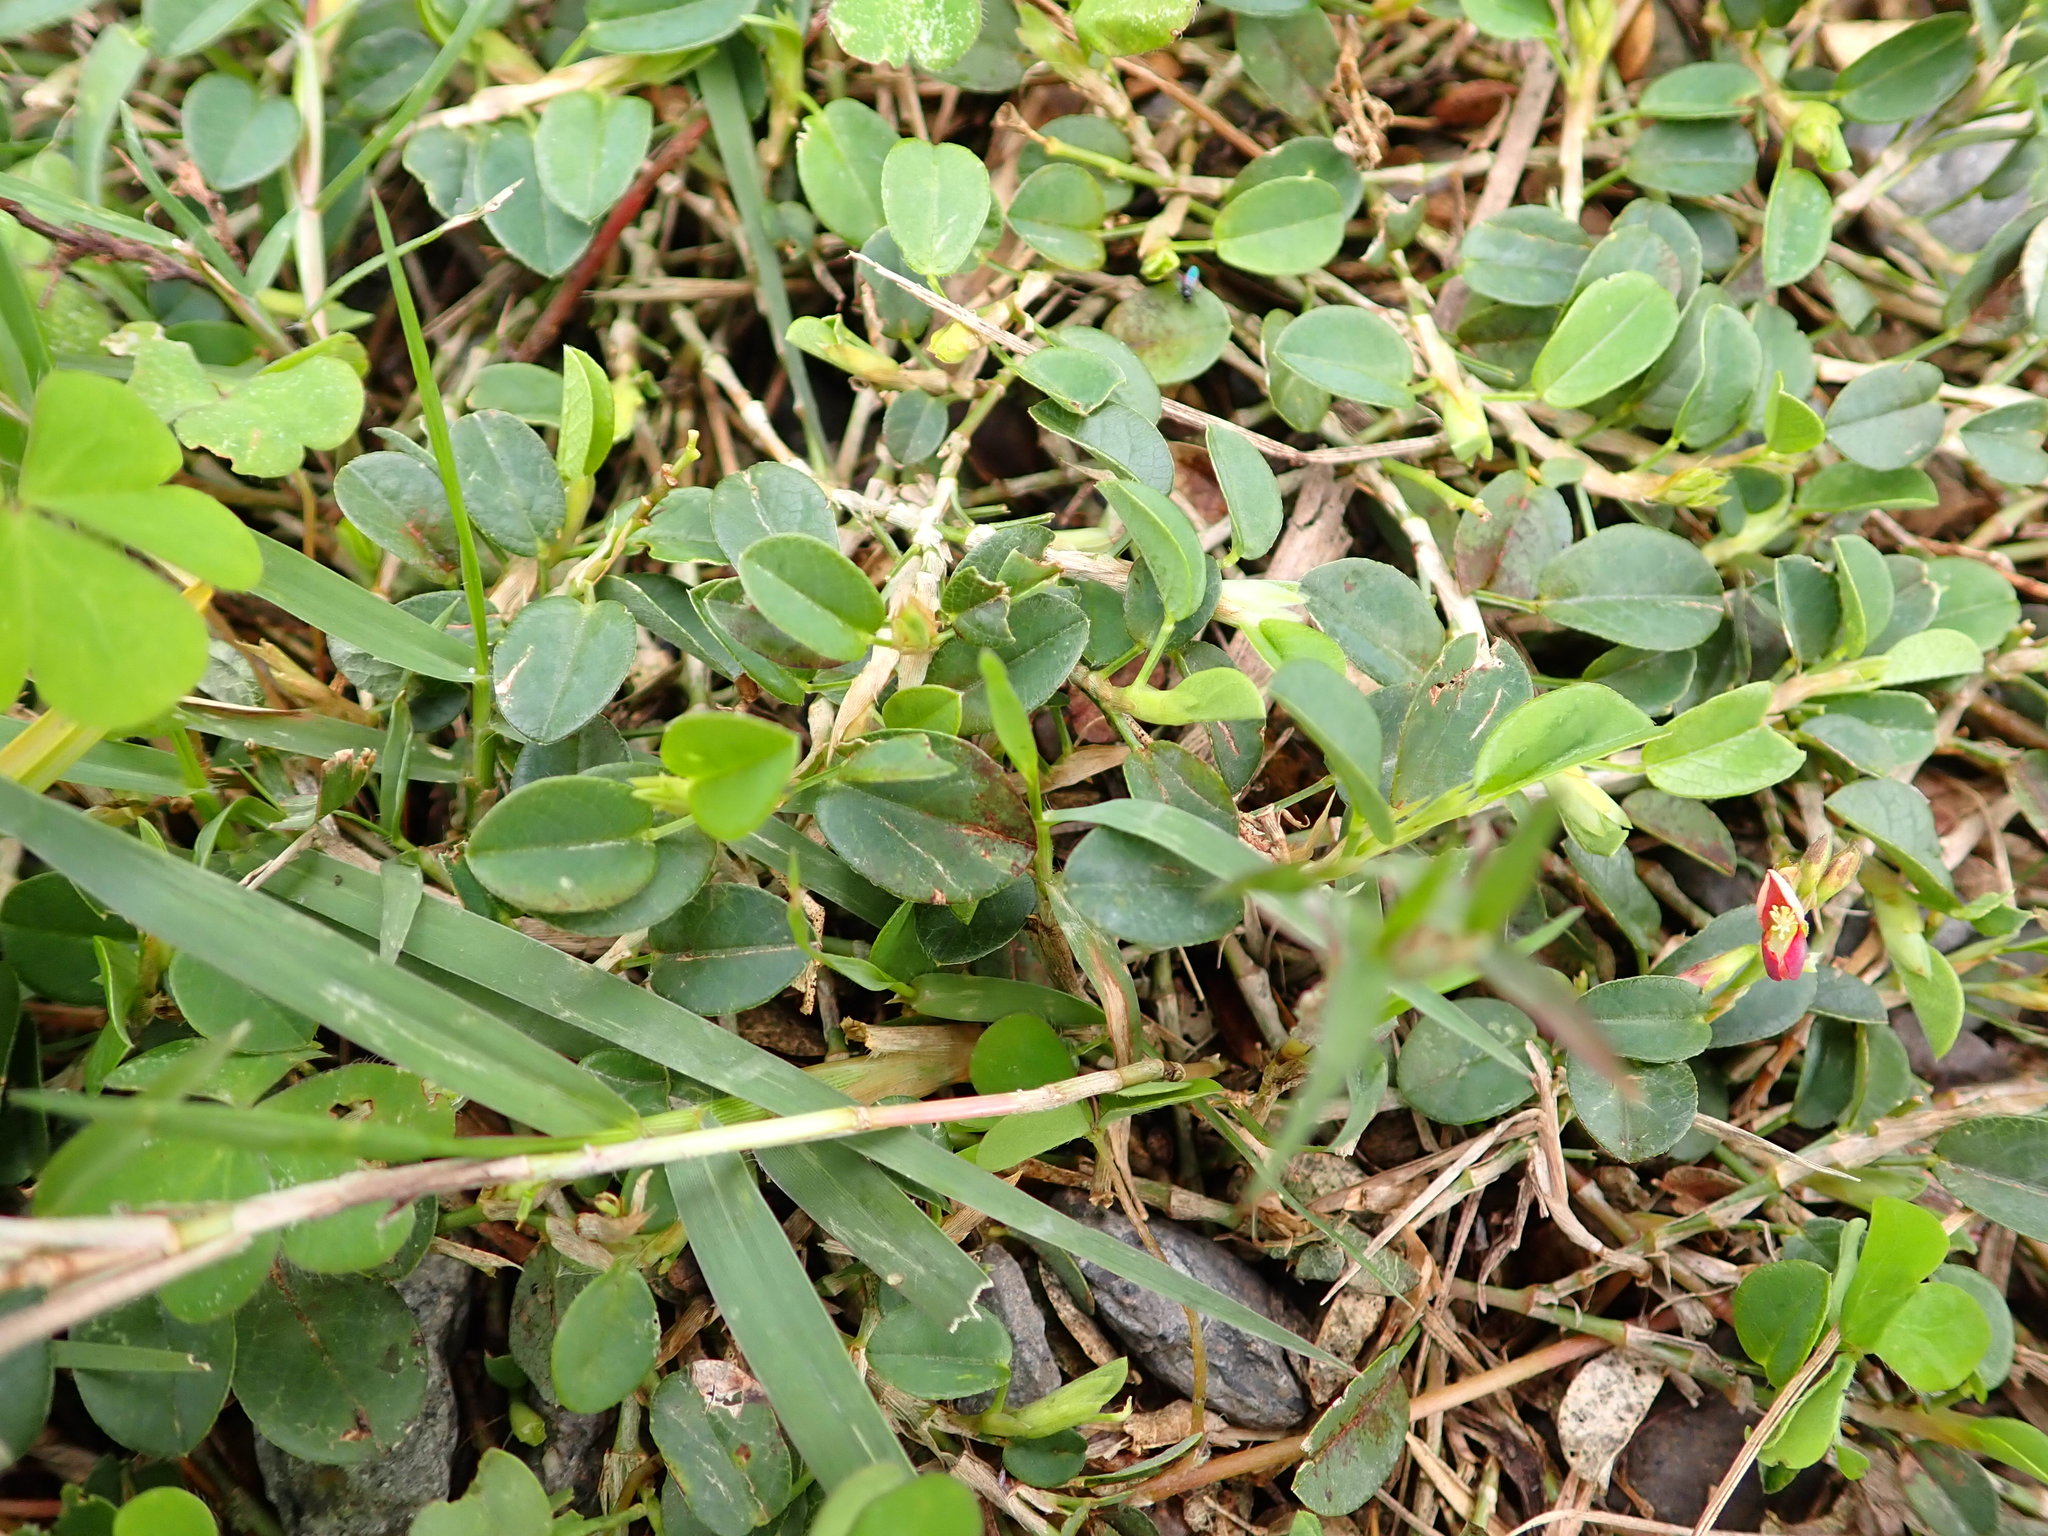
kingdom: Plantae
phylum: Tracheophyta
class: Magnoliopsida
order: Fabales
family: Fabaceae
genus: Alysicarpus
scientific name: Alysicarpus vaginalis
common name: White moneywort
